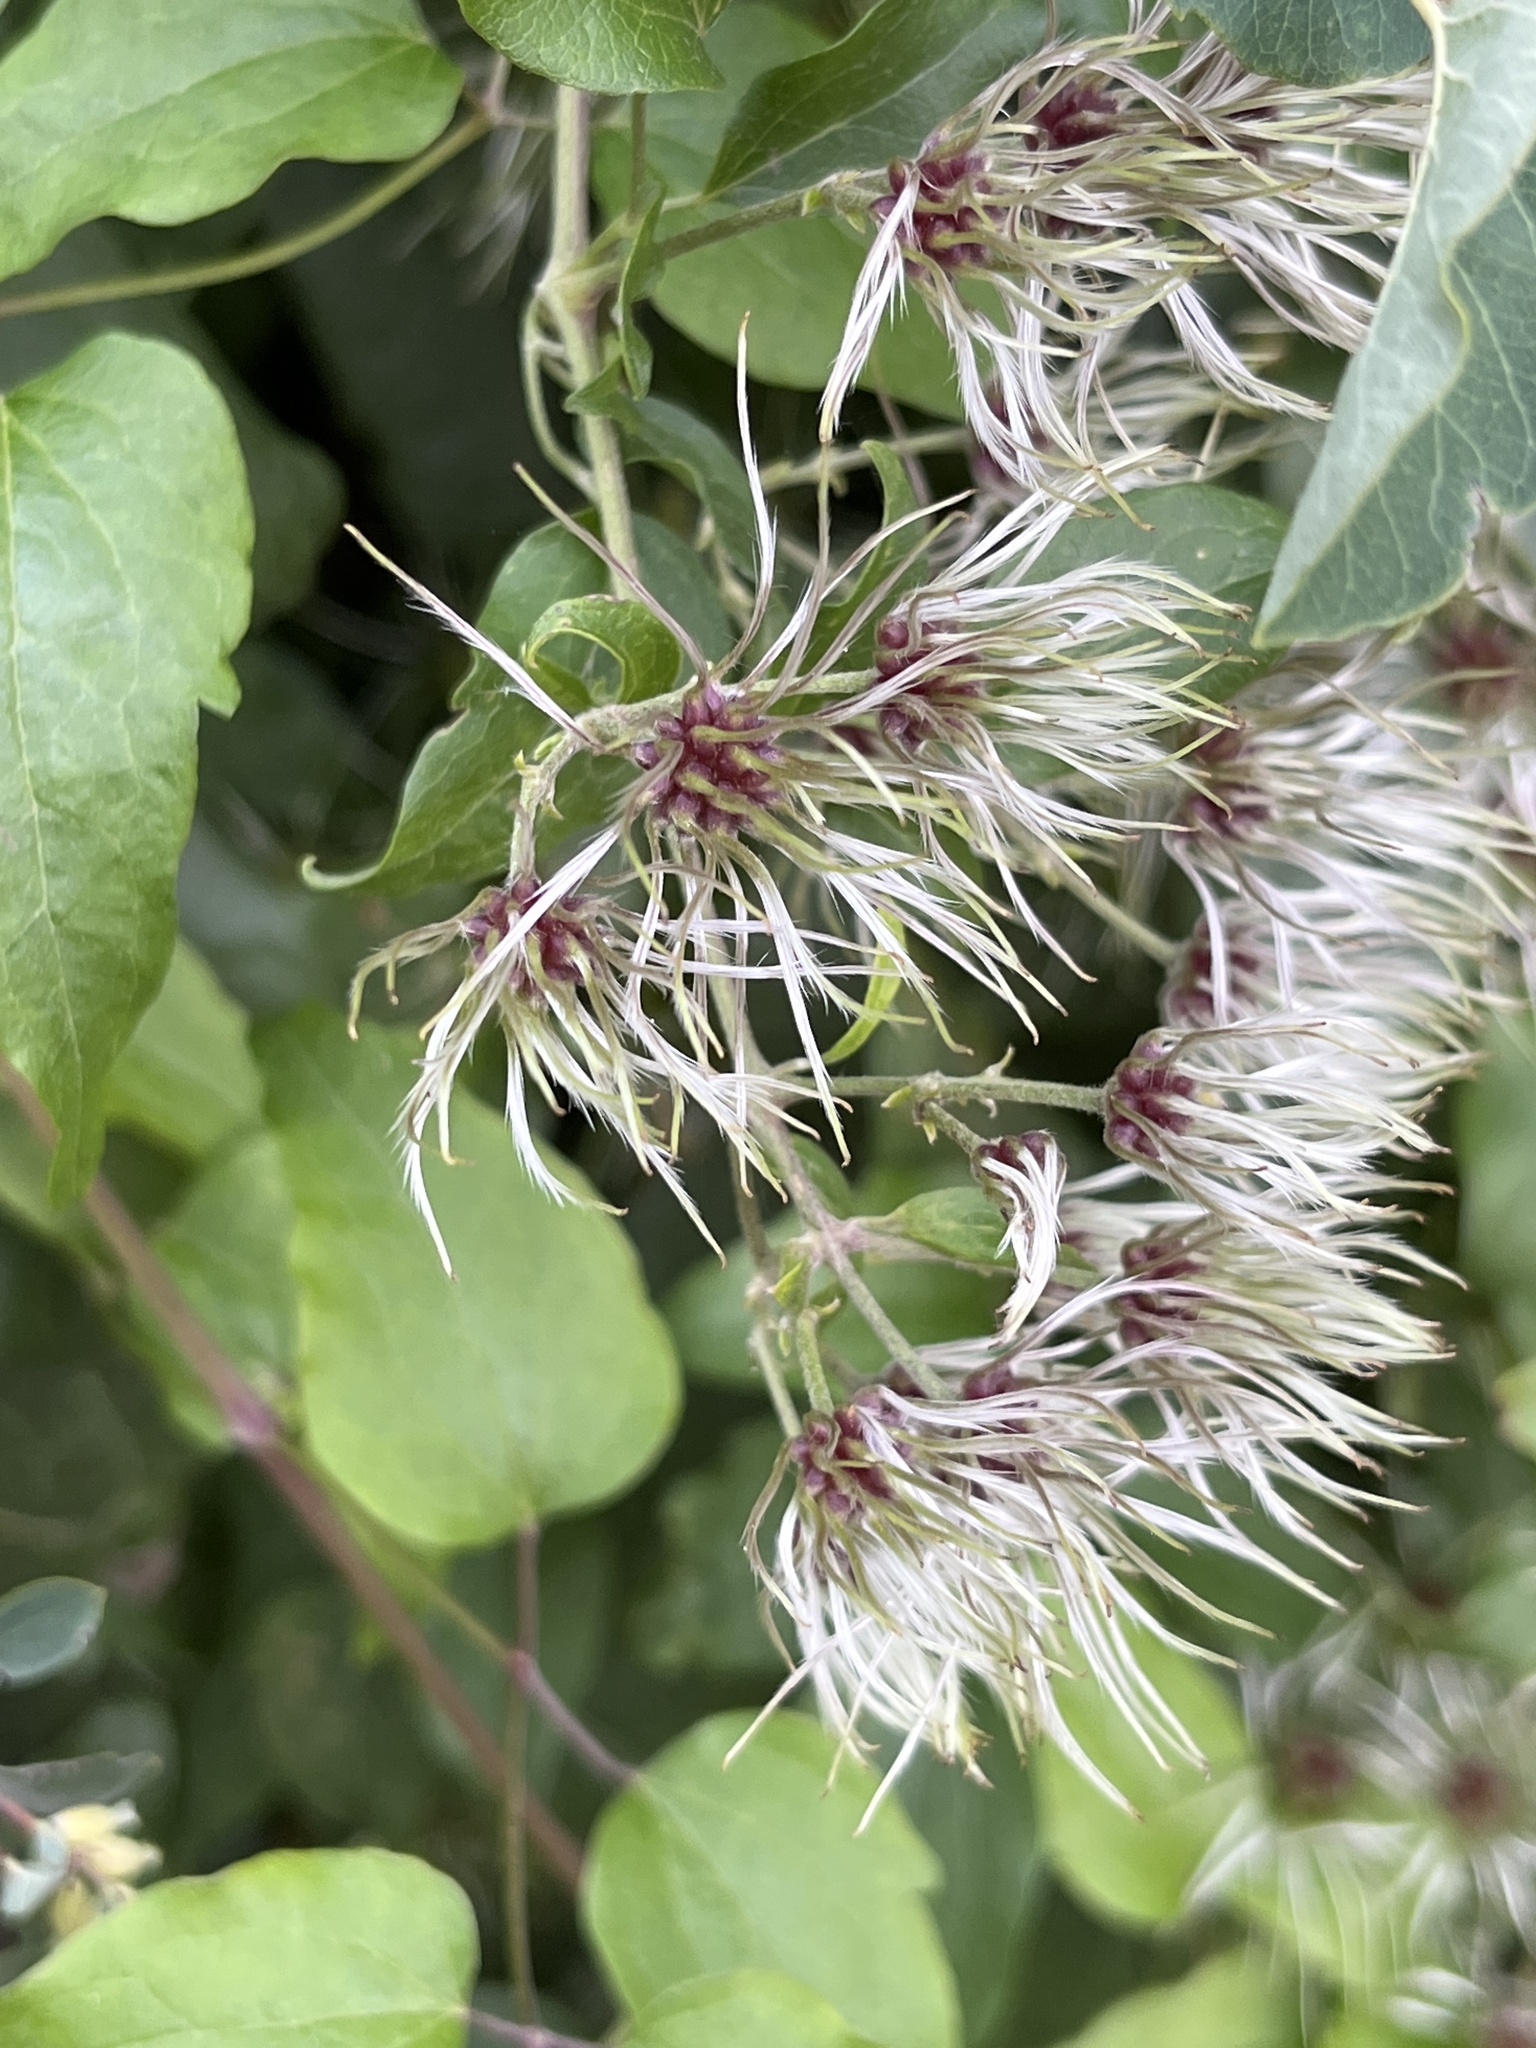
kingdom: Plantae
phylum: Tracheophyta
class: Magnoliopsida
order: Ranunculales
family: Ranunculaceae
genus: Clematis
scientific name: Clematis vitalba
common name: Evergreen clematis
